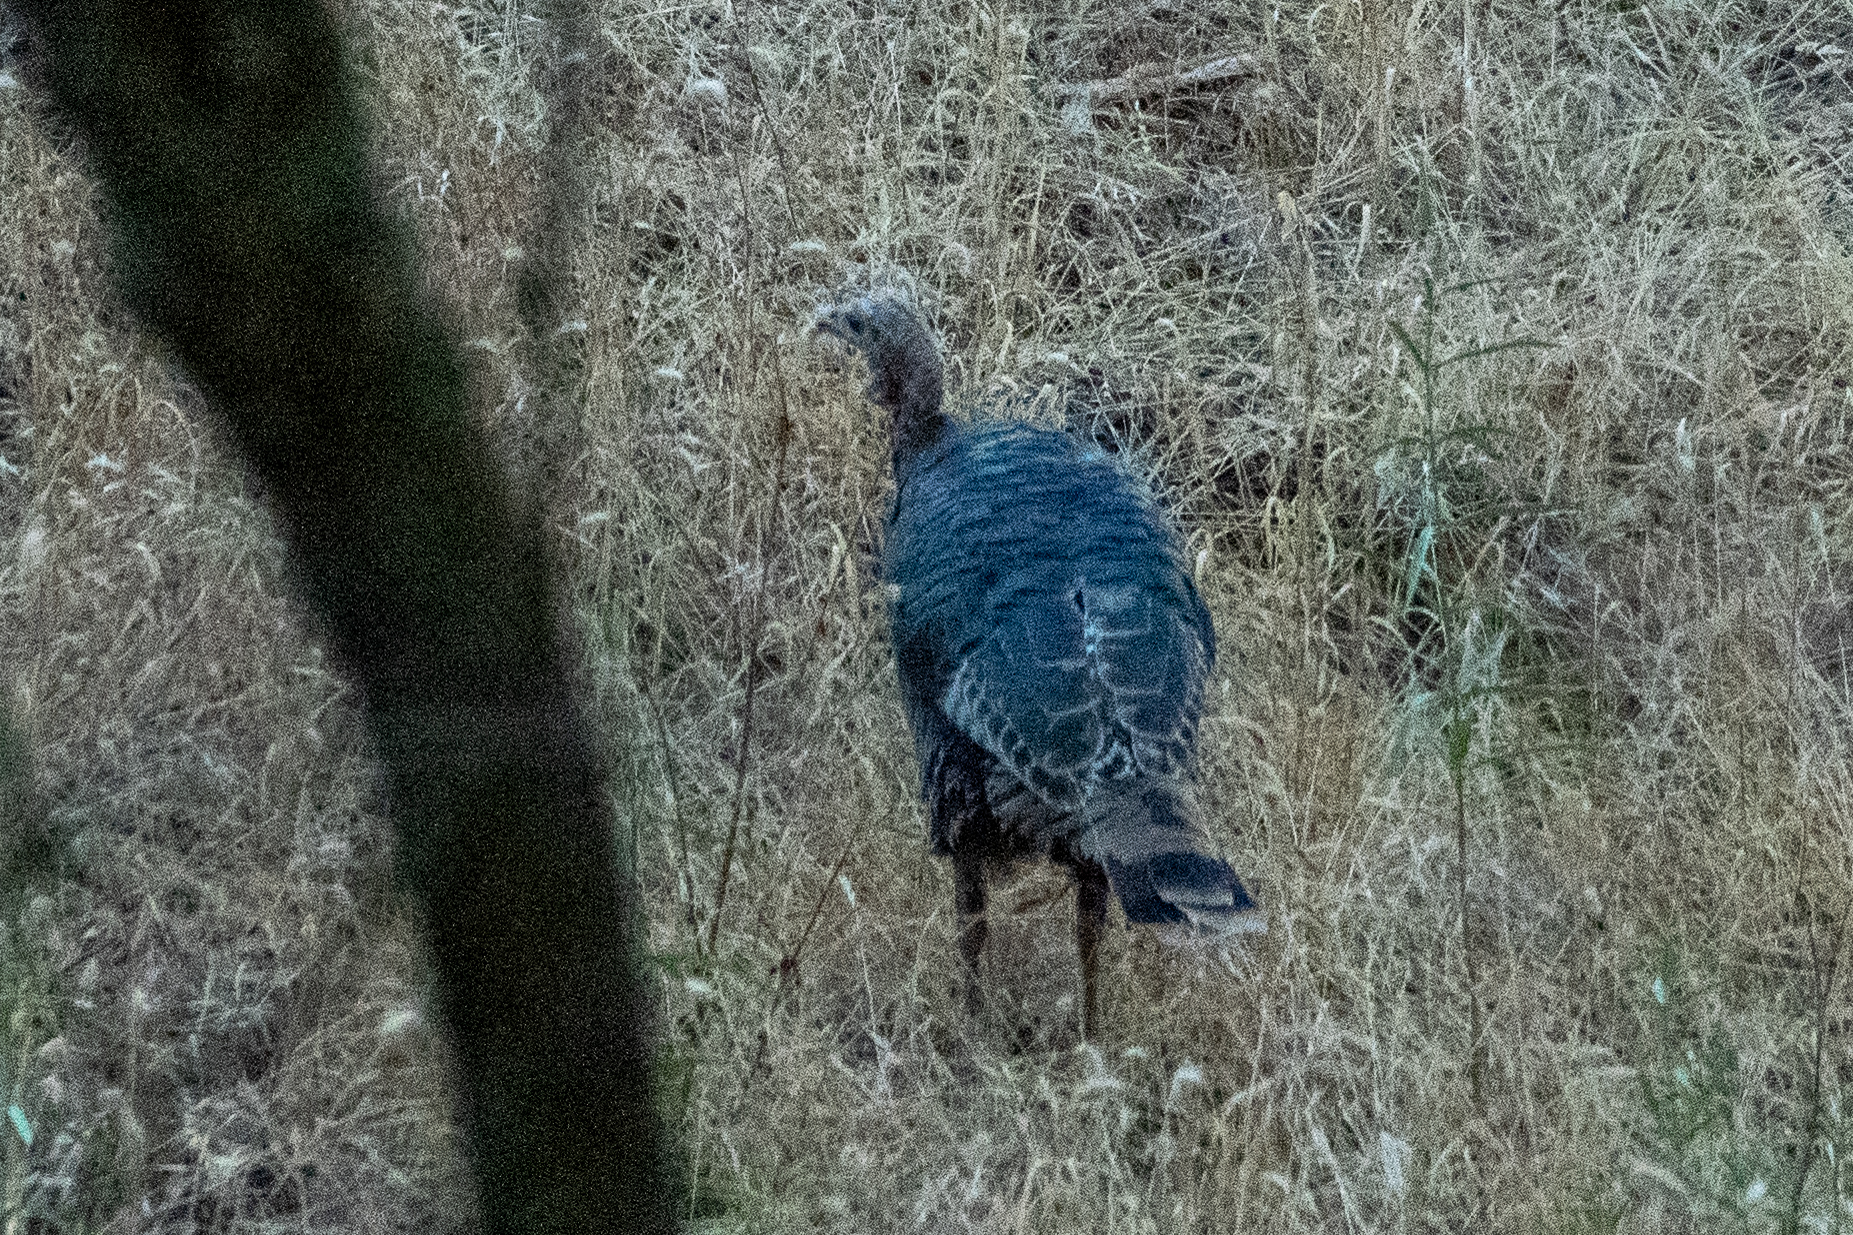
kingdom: Animalia
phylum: Chordata
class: Aves
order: Galliformes
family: Phasianidae
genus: Meleagris
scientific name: Meleagris gallopavo
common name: Wild turkey
